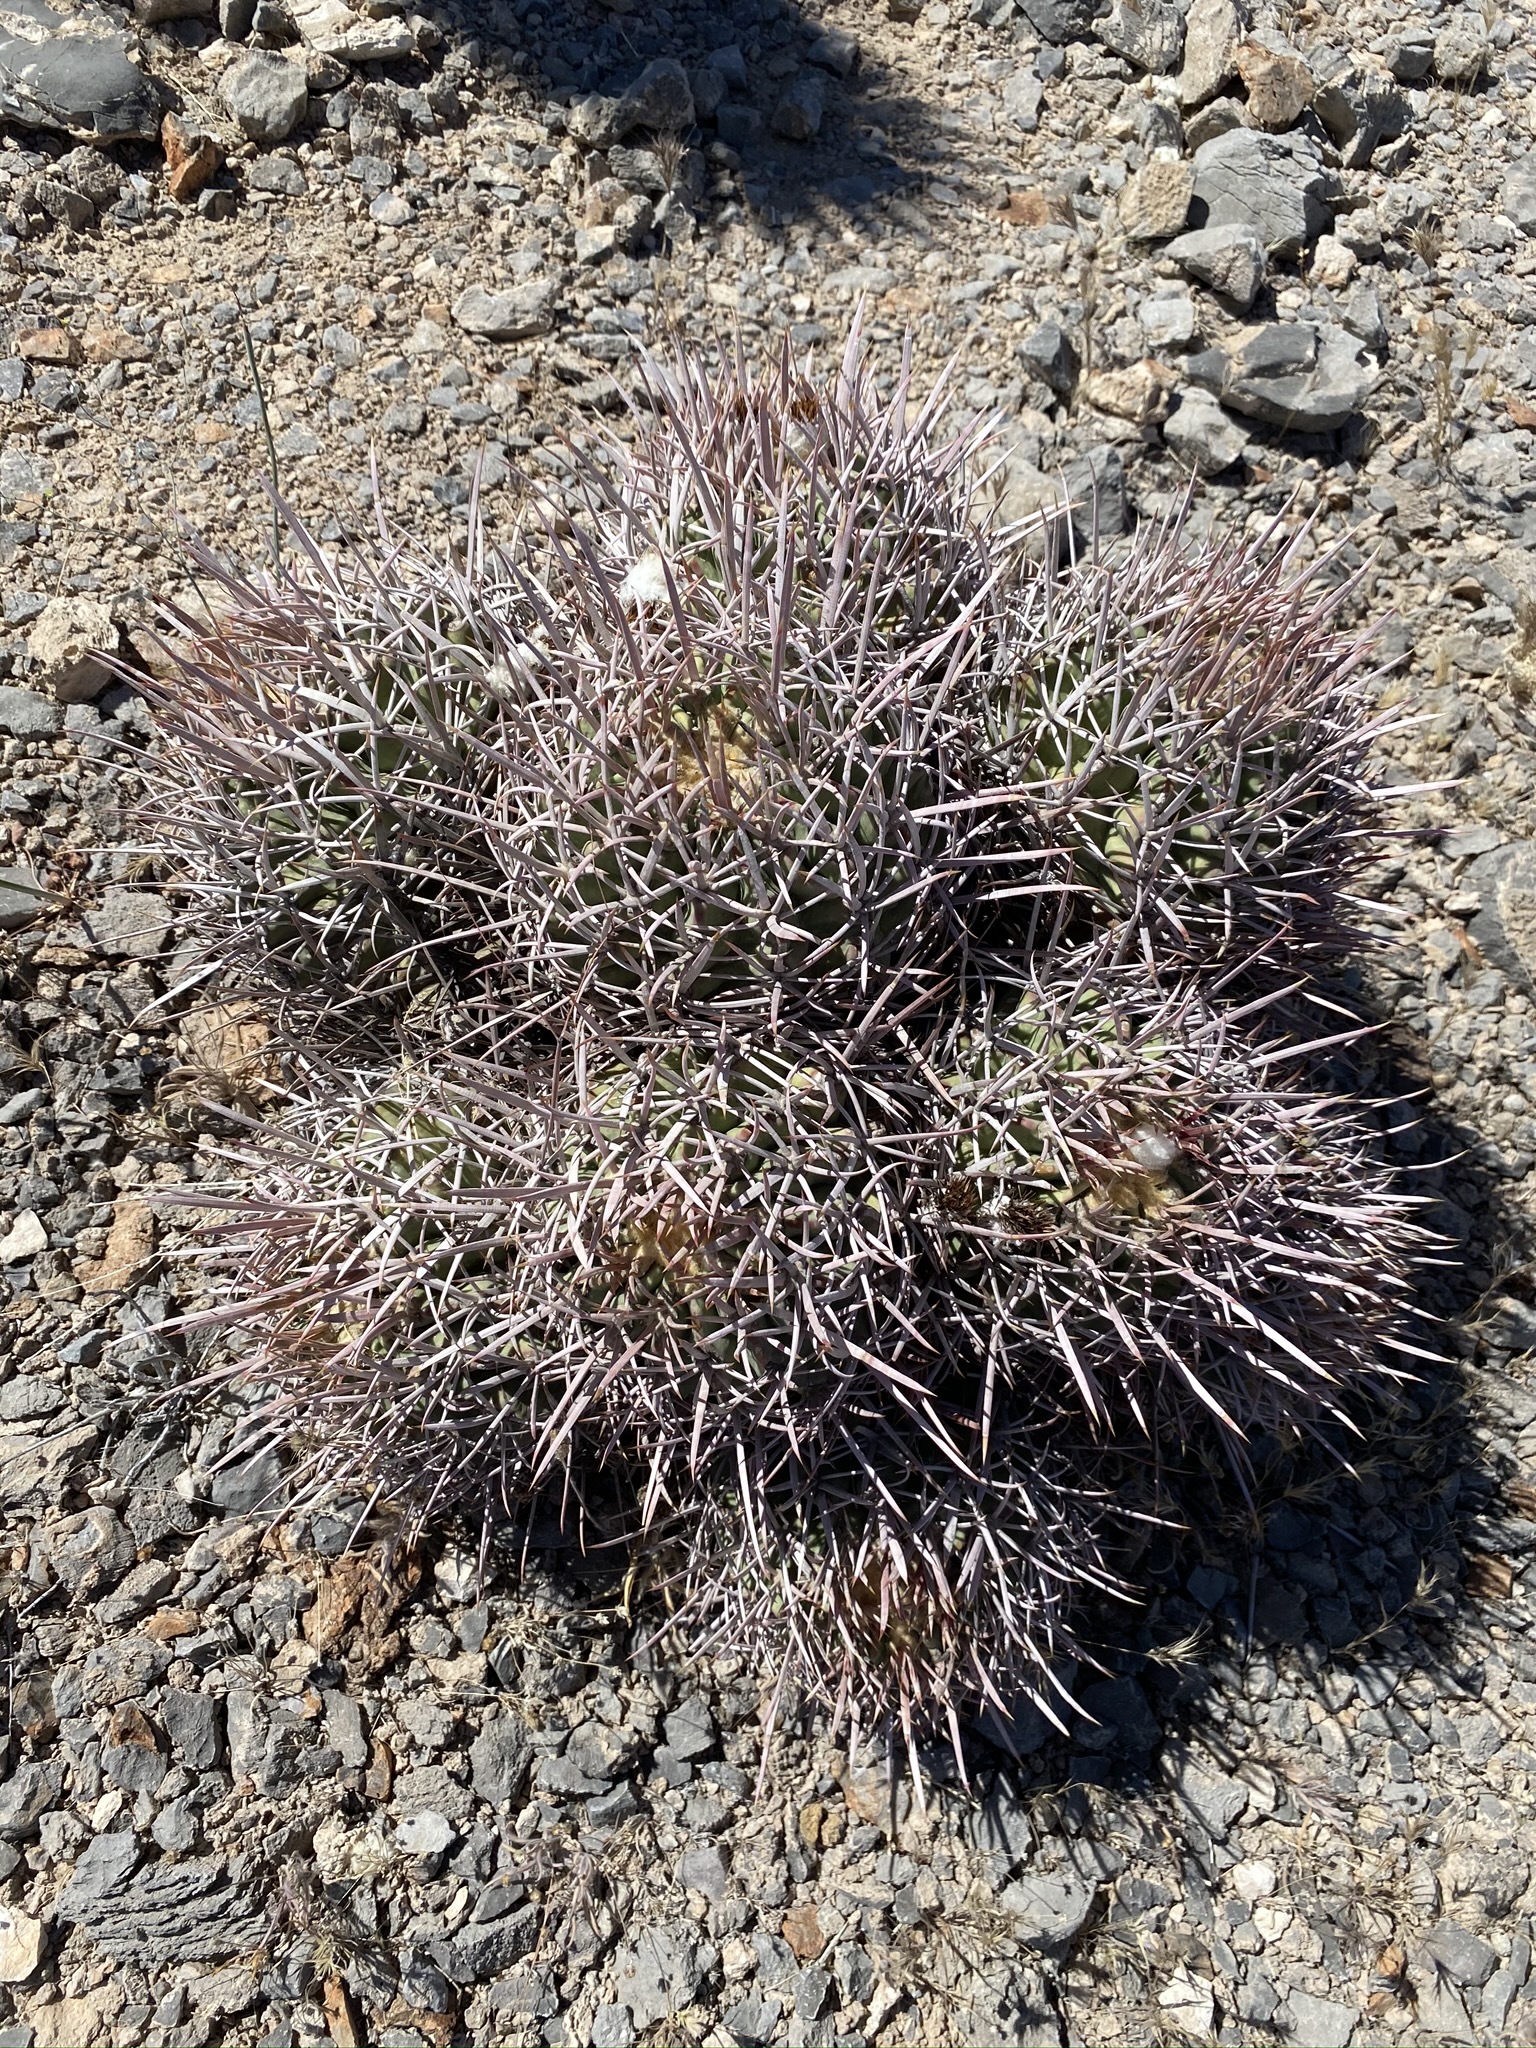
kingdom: Plantae
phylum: Tracheophyta
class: Magnoliopsida
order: Caryophyllales
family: Cactaceae
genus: Echinocactus
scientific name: Echinocactus polycephalus
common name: Cottontop cactus
